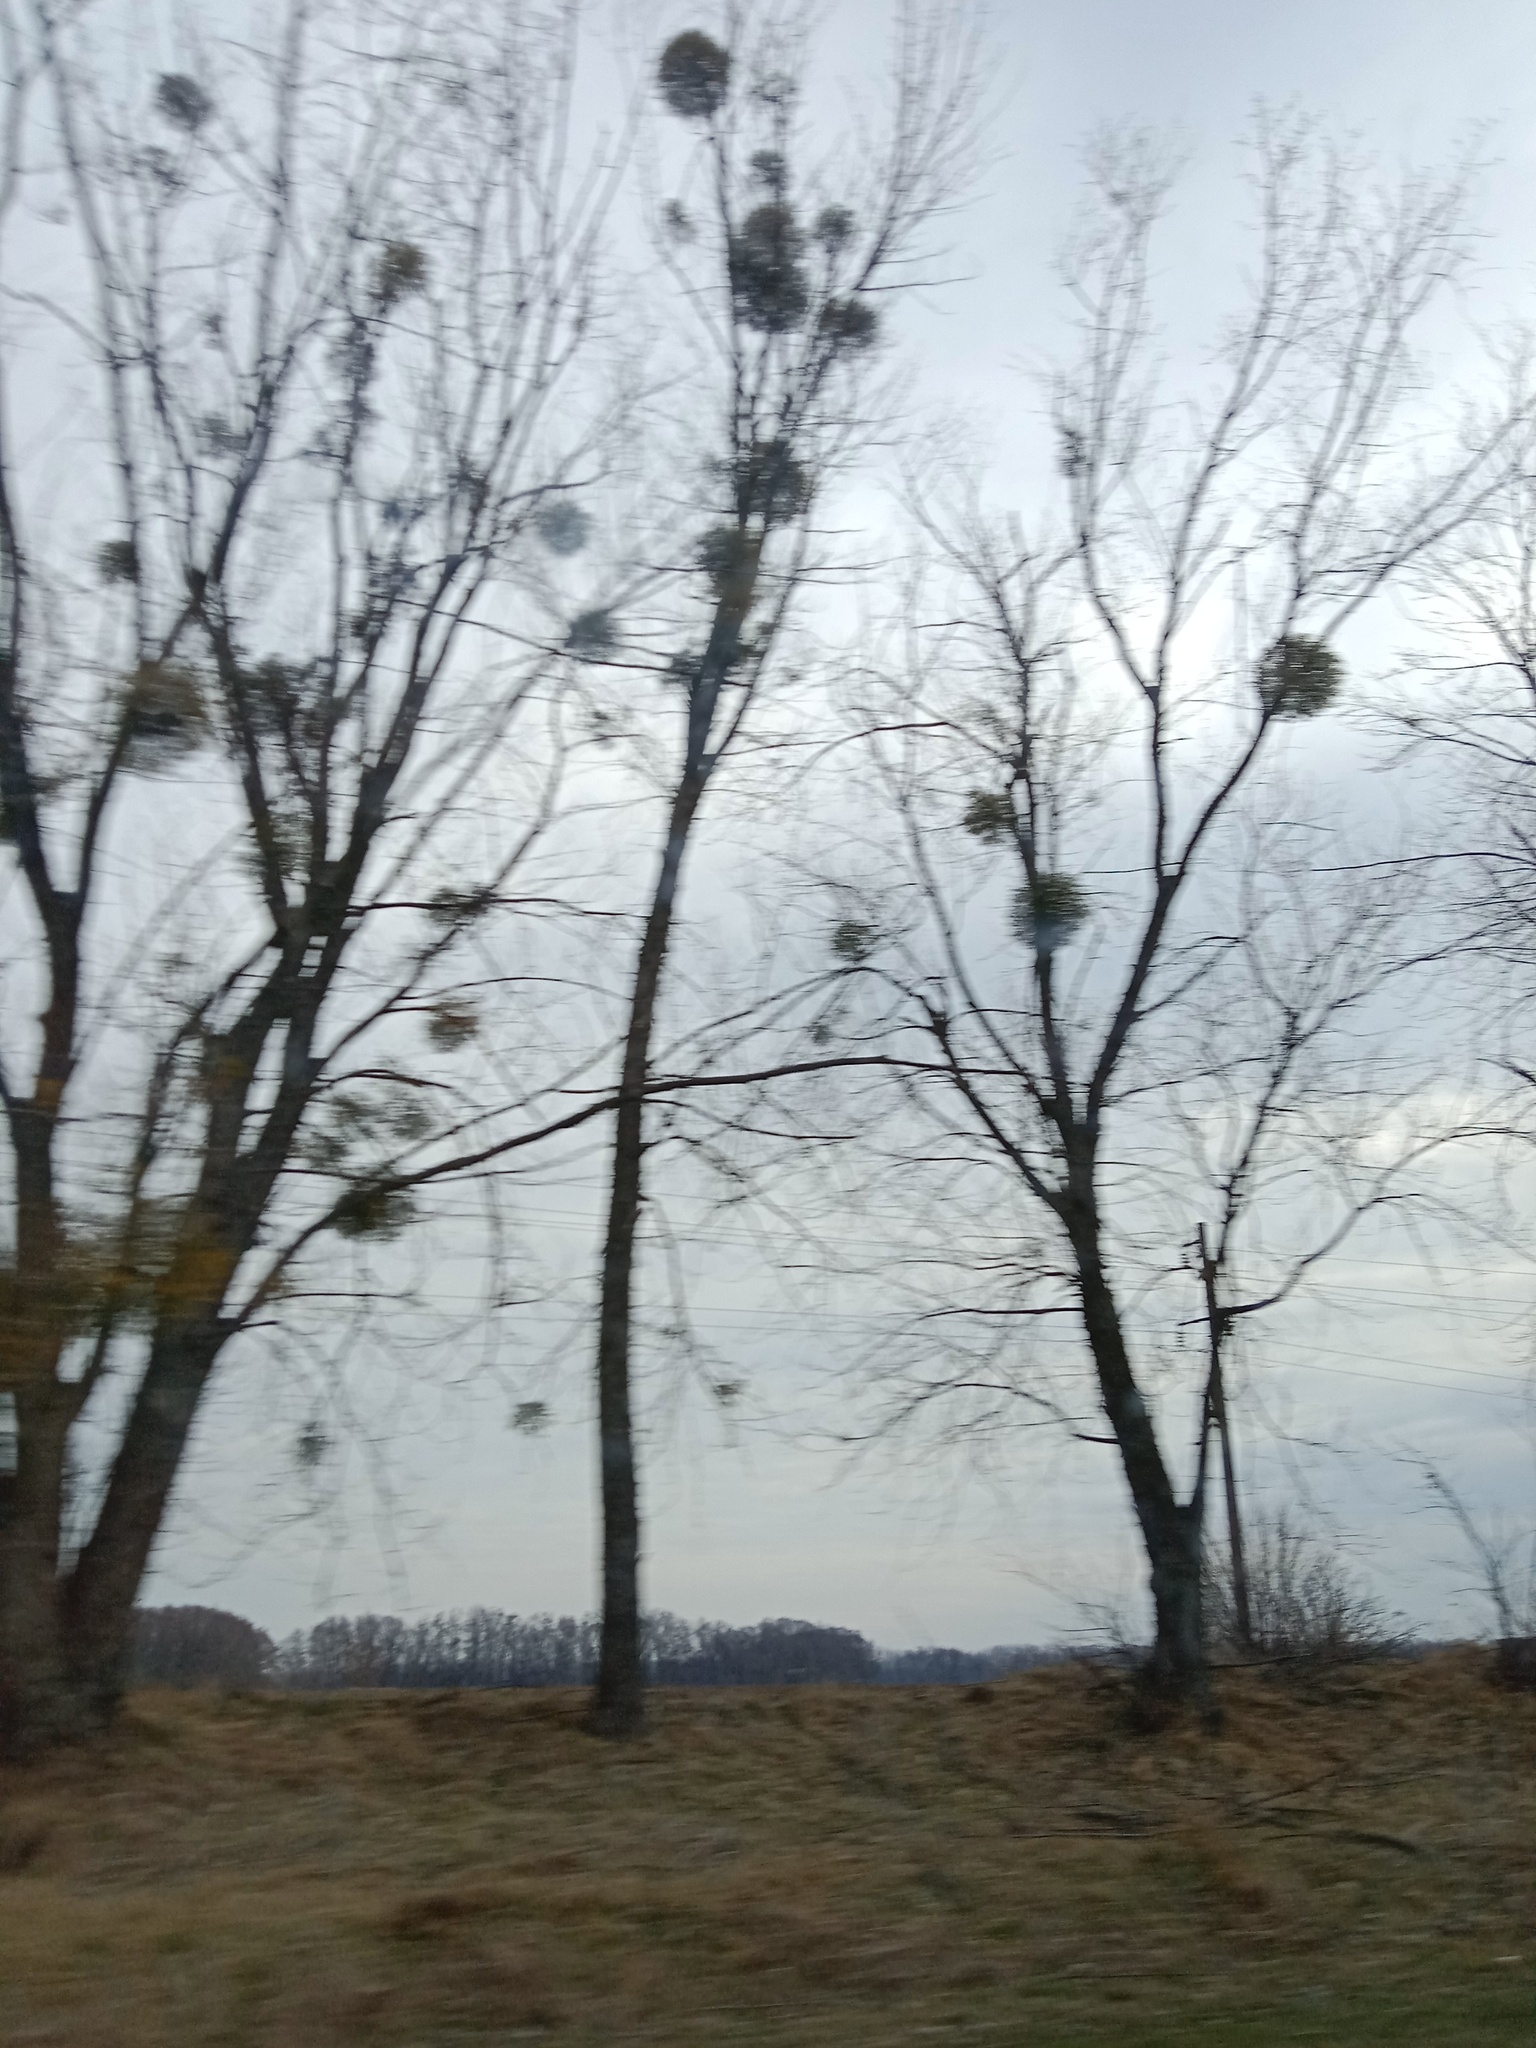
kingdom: Plantae
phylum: Tracheophyta
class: Magnoliopsida
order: Santalales
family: Viscaceae
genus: Viscum
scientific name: Viscum album
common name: Mistletoe
